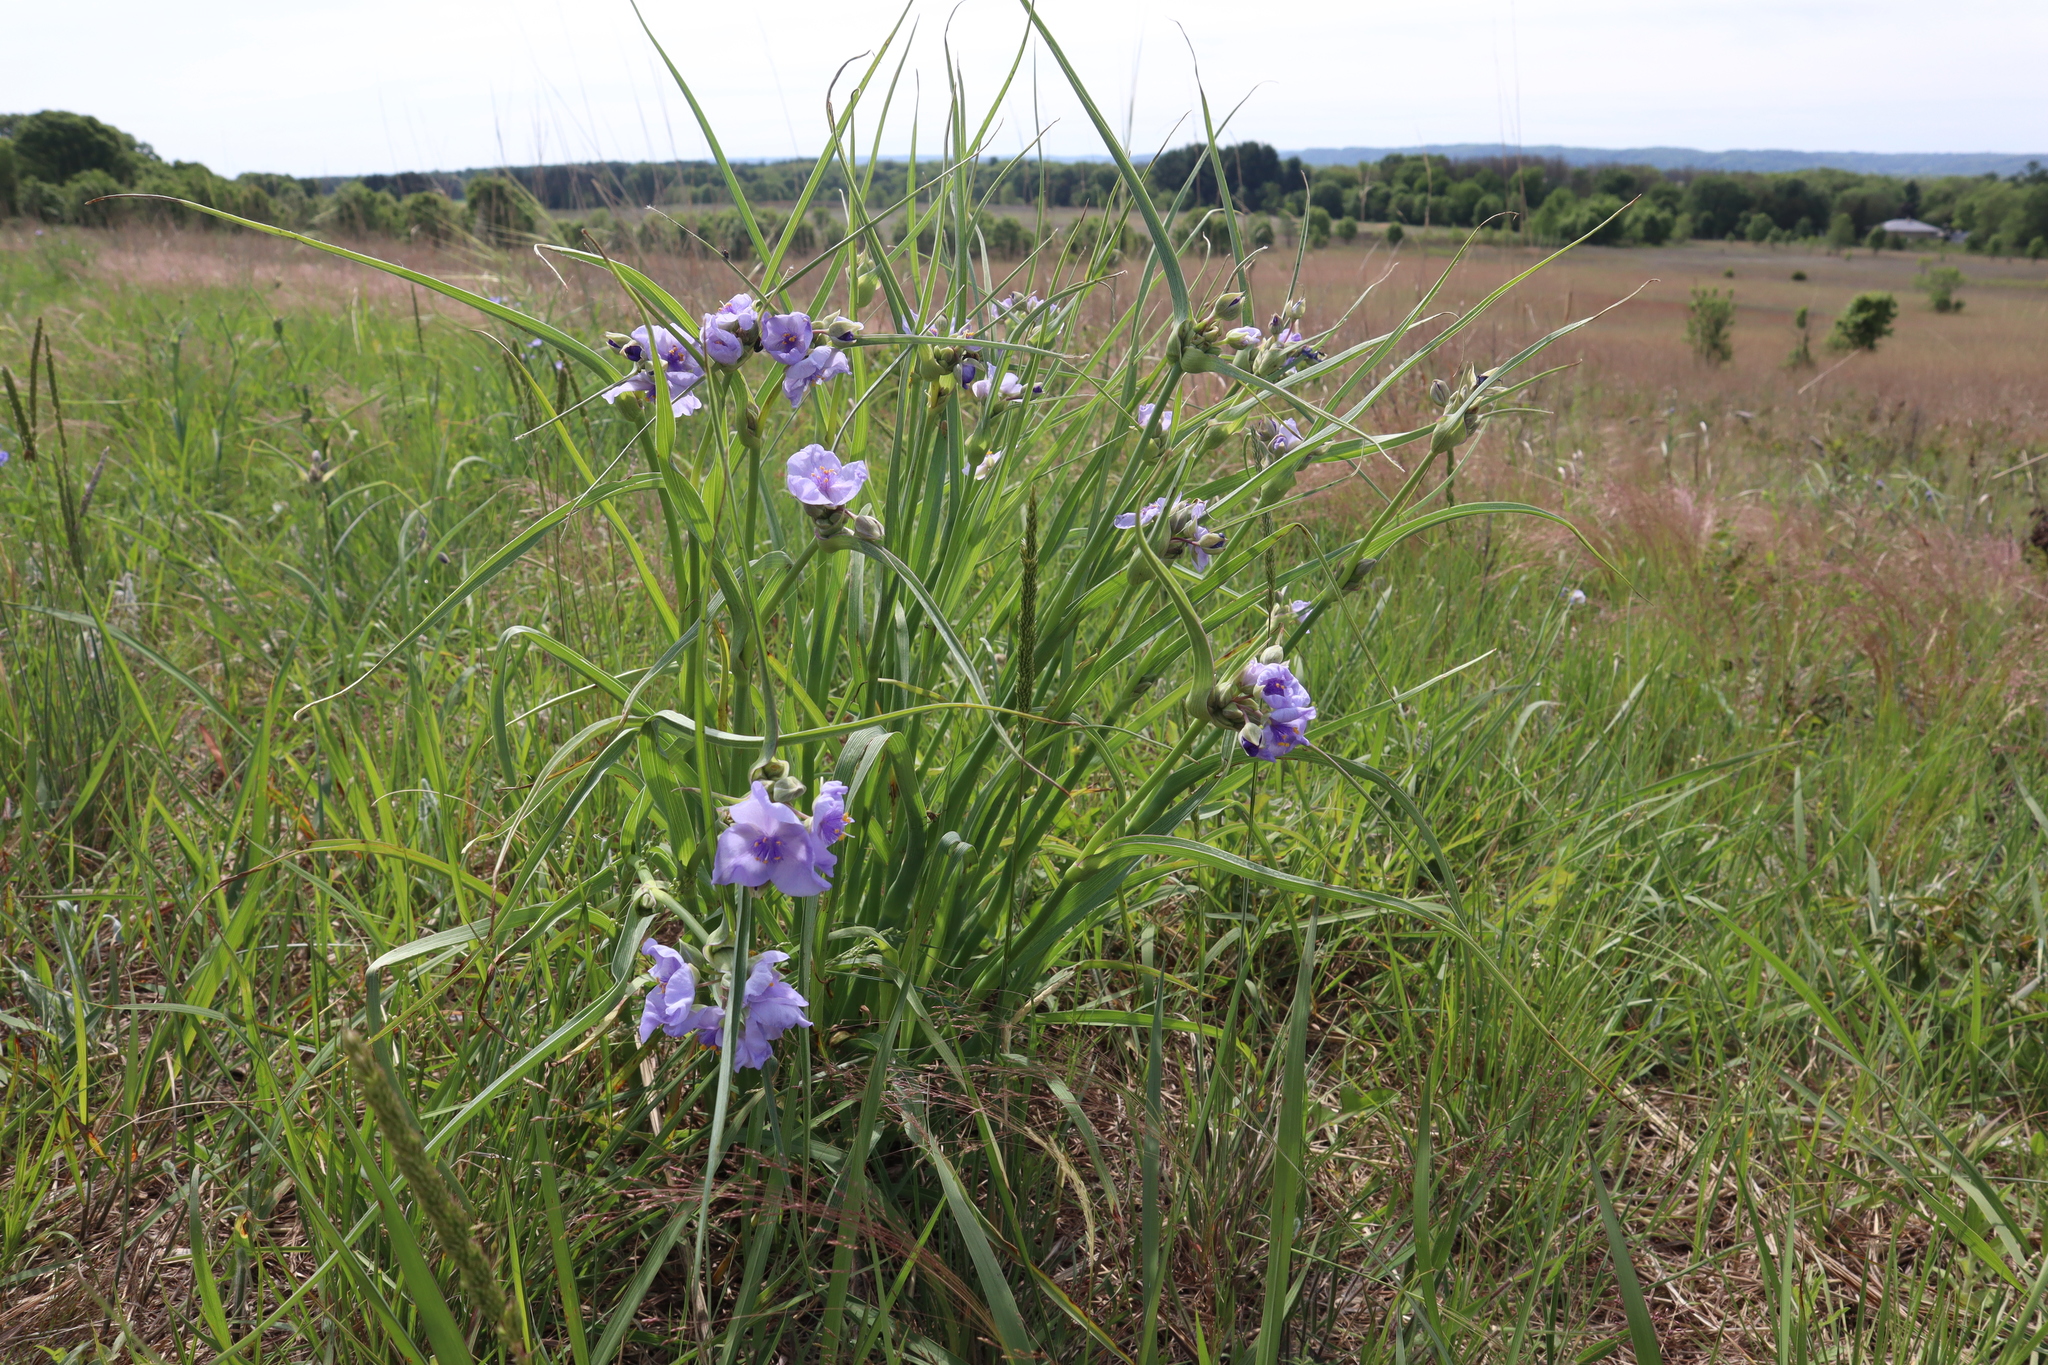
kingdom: Plantae
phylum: Tracheophyta
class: Liliopsida
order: Commelinales
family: Commelinaceae
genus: Tradescantia
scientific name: Tradescantia ohiensis
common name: Ohio spiderwort
